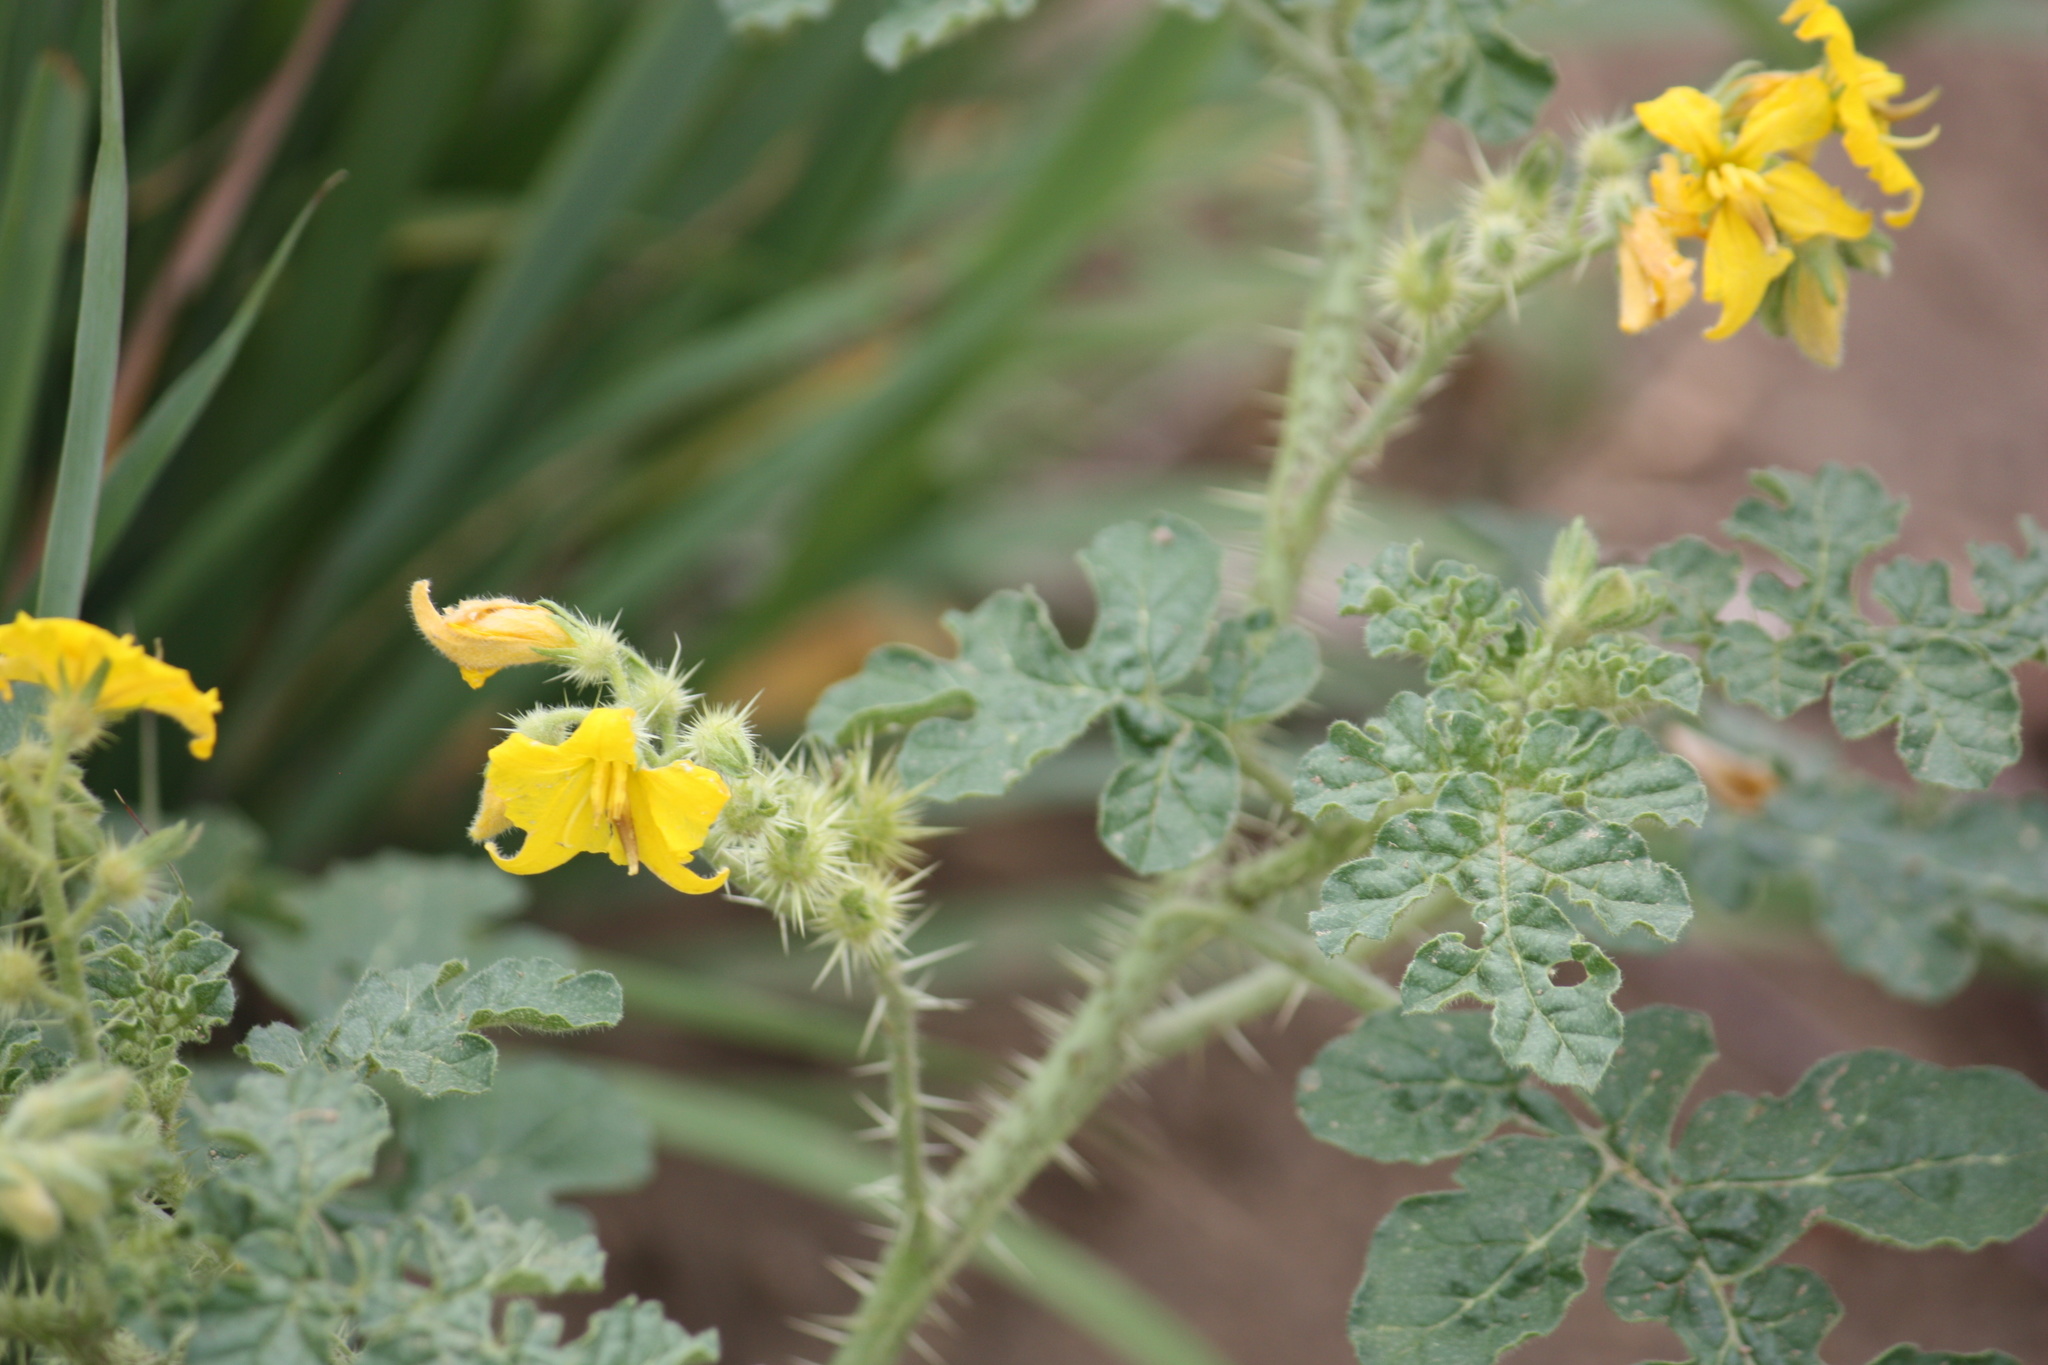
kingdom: Plantae
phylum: Tracheophyta
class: Magnoliopsida
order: Solanales
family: Solanaceae
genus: Solanum
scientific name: Solanum angustifolium
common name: Buffalobur nightshade
